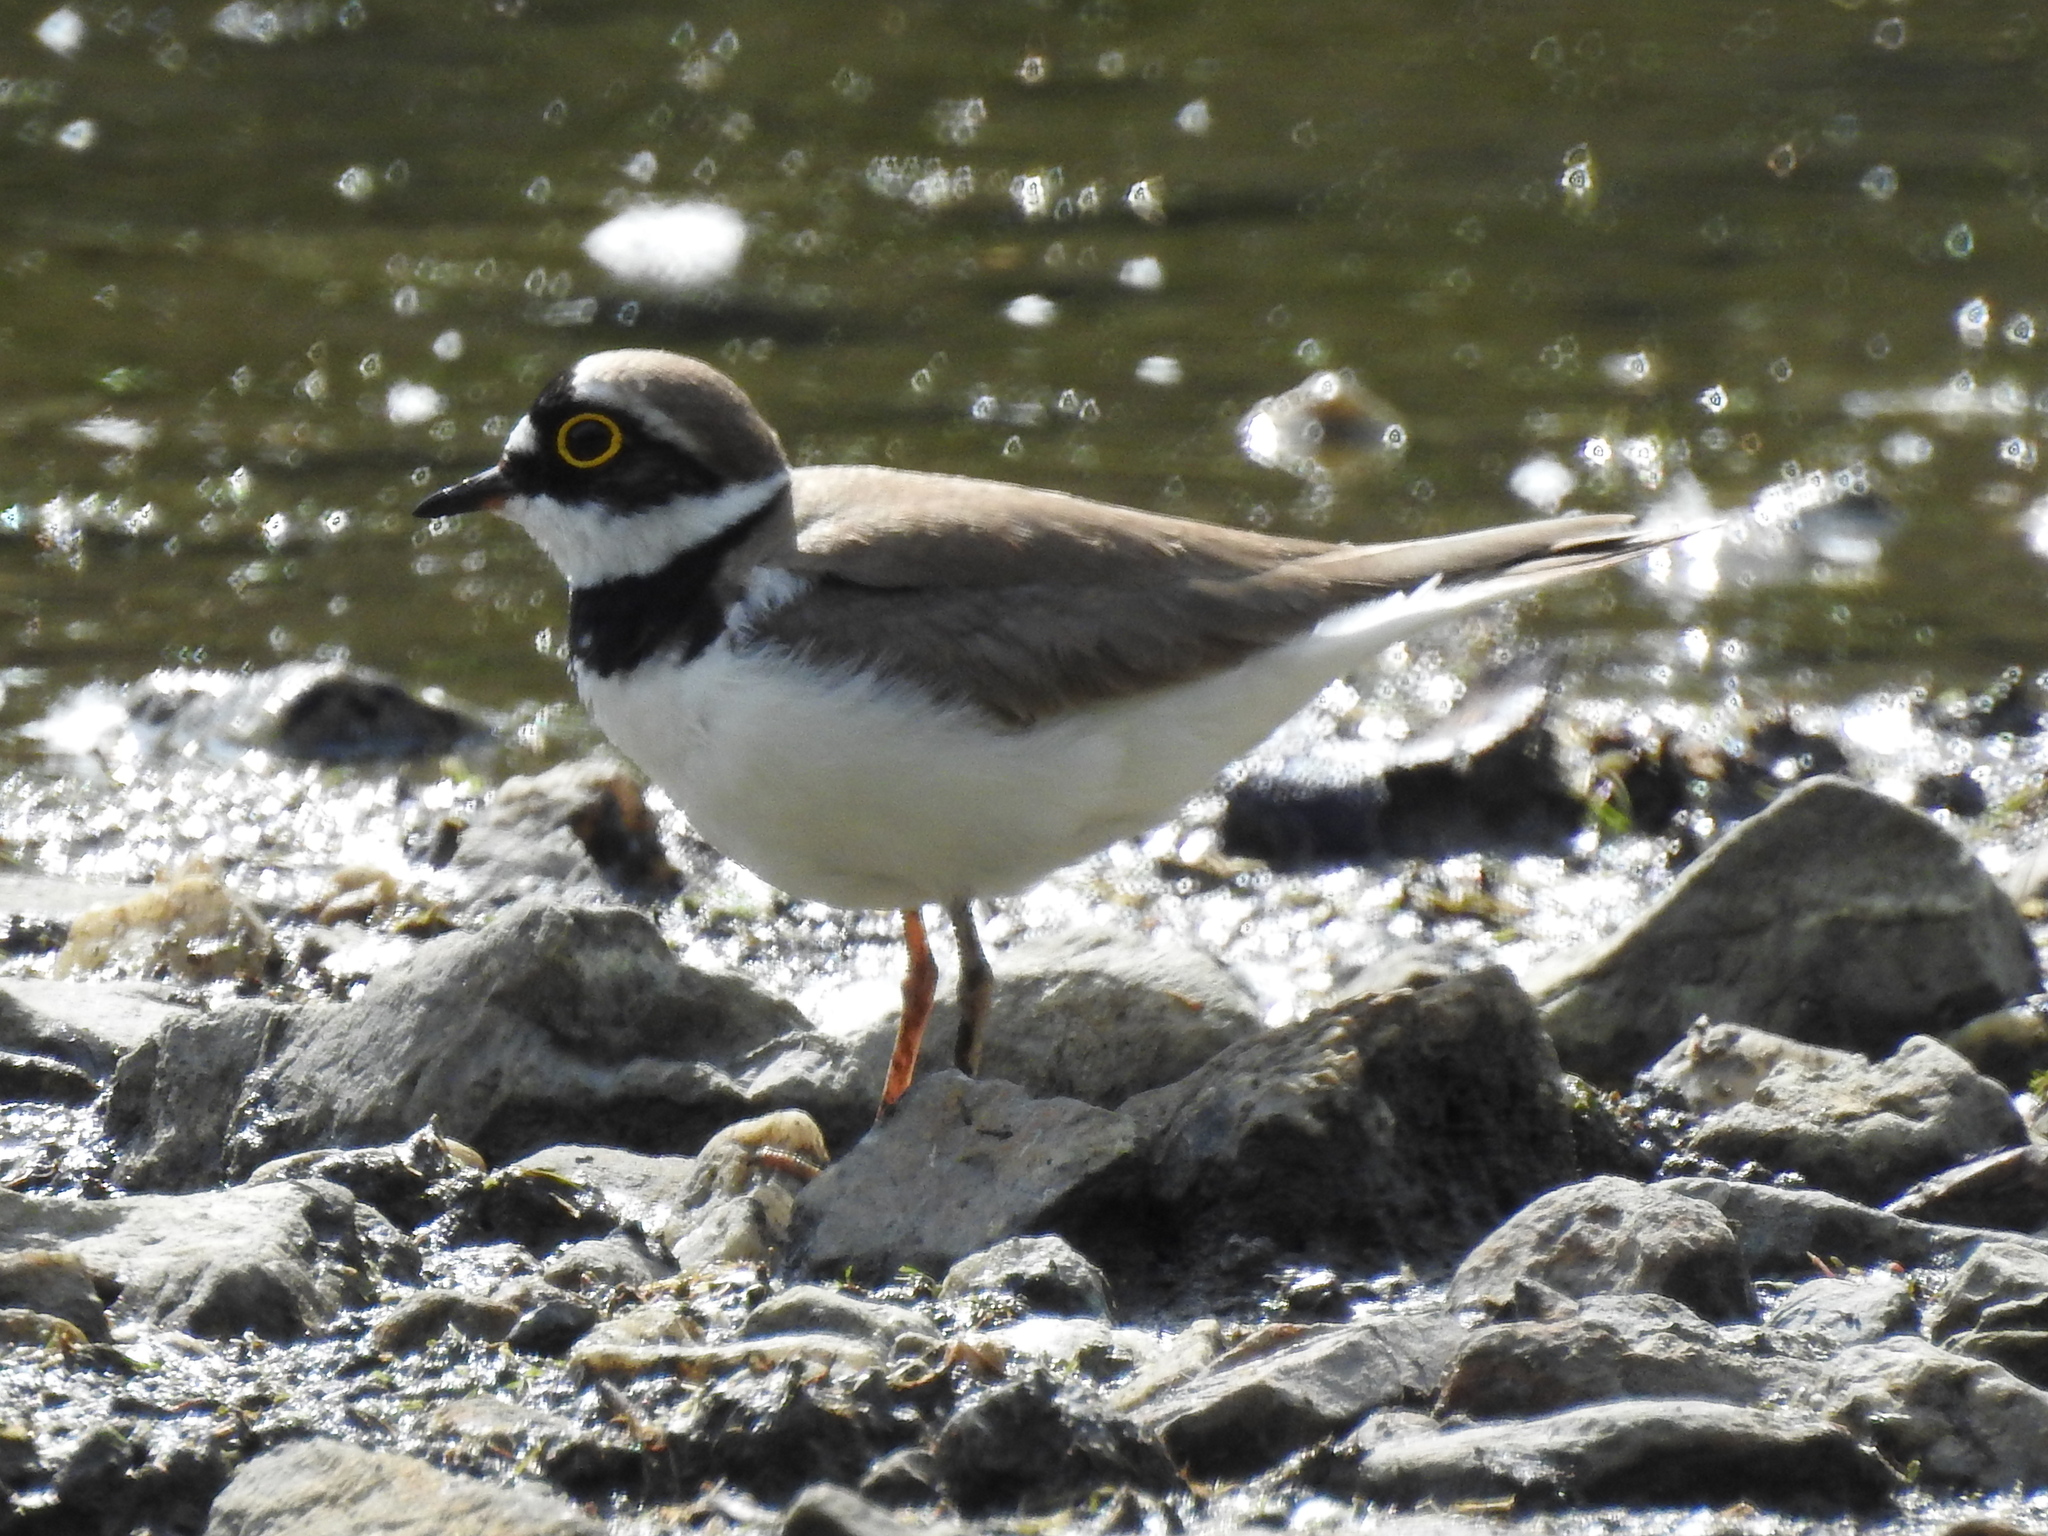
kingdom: Animalia
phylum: Chordata
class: Aves
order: Charadriiformes
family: Charadriidae
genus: Charadrius
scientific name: Charadrius dubius
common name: Little ringed plover
